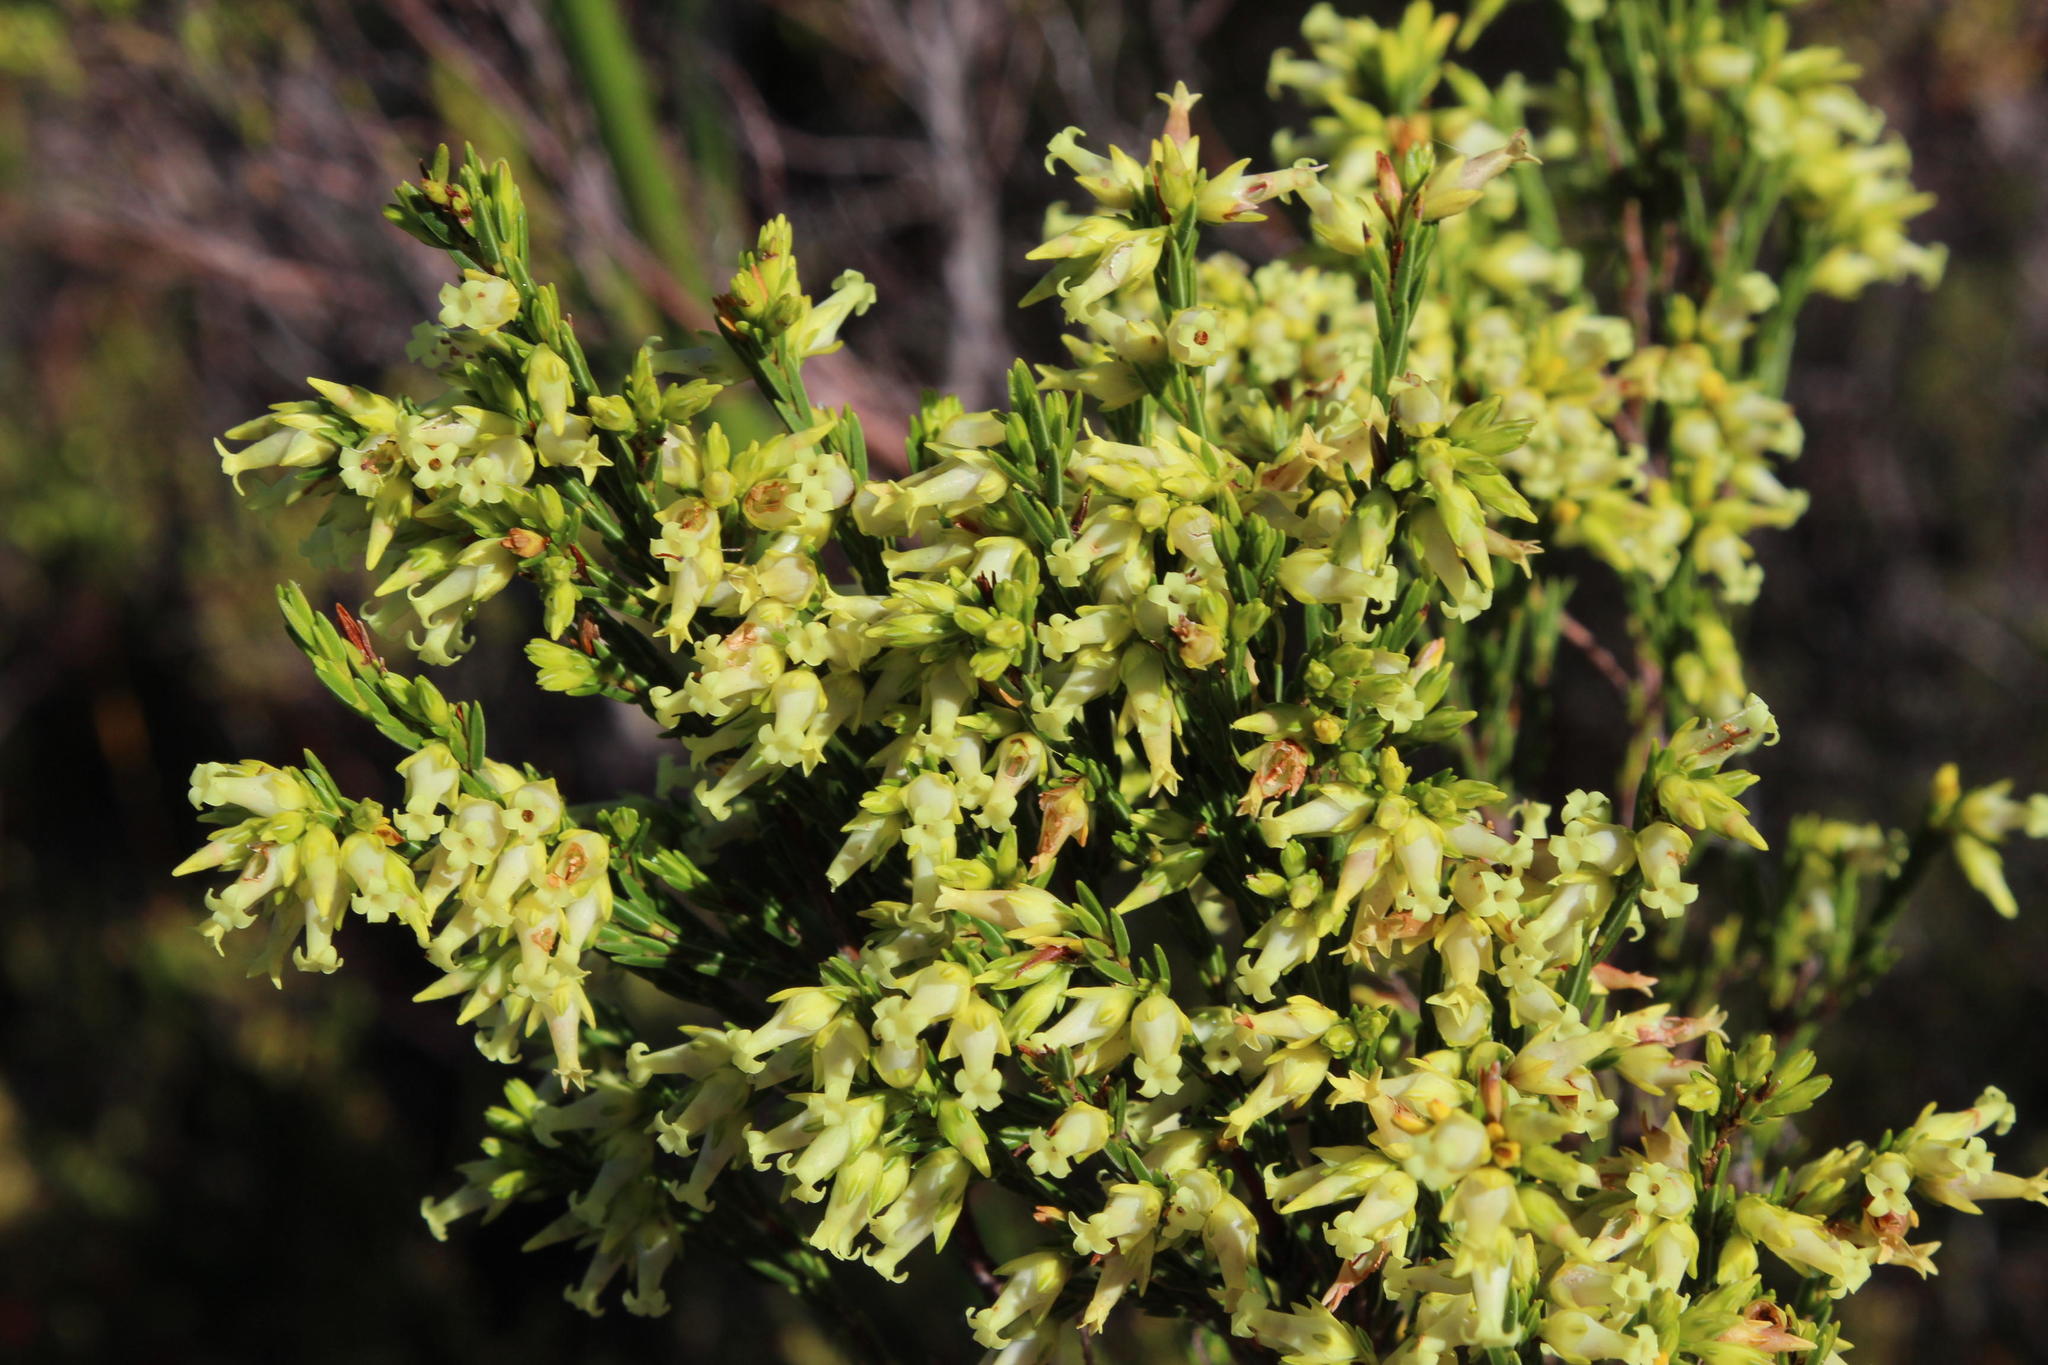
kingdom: Plantae
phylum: Tracheophyta
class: Magnoliopsida
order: Ericales
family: Ericaceae
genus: Erica
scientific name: Erica lutea
